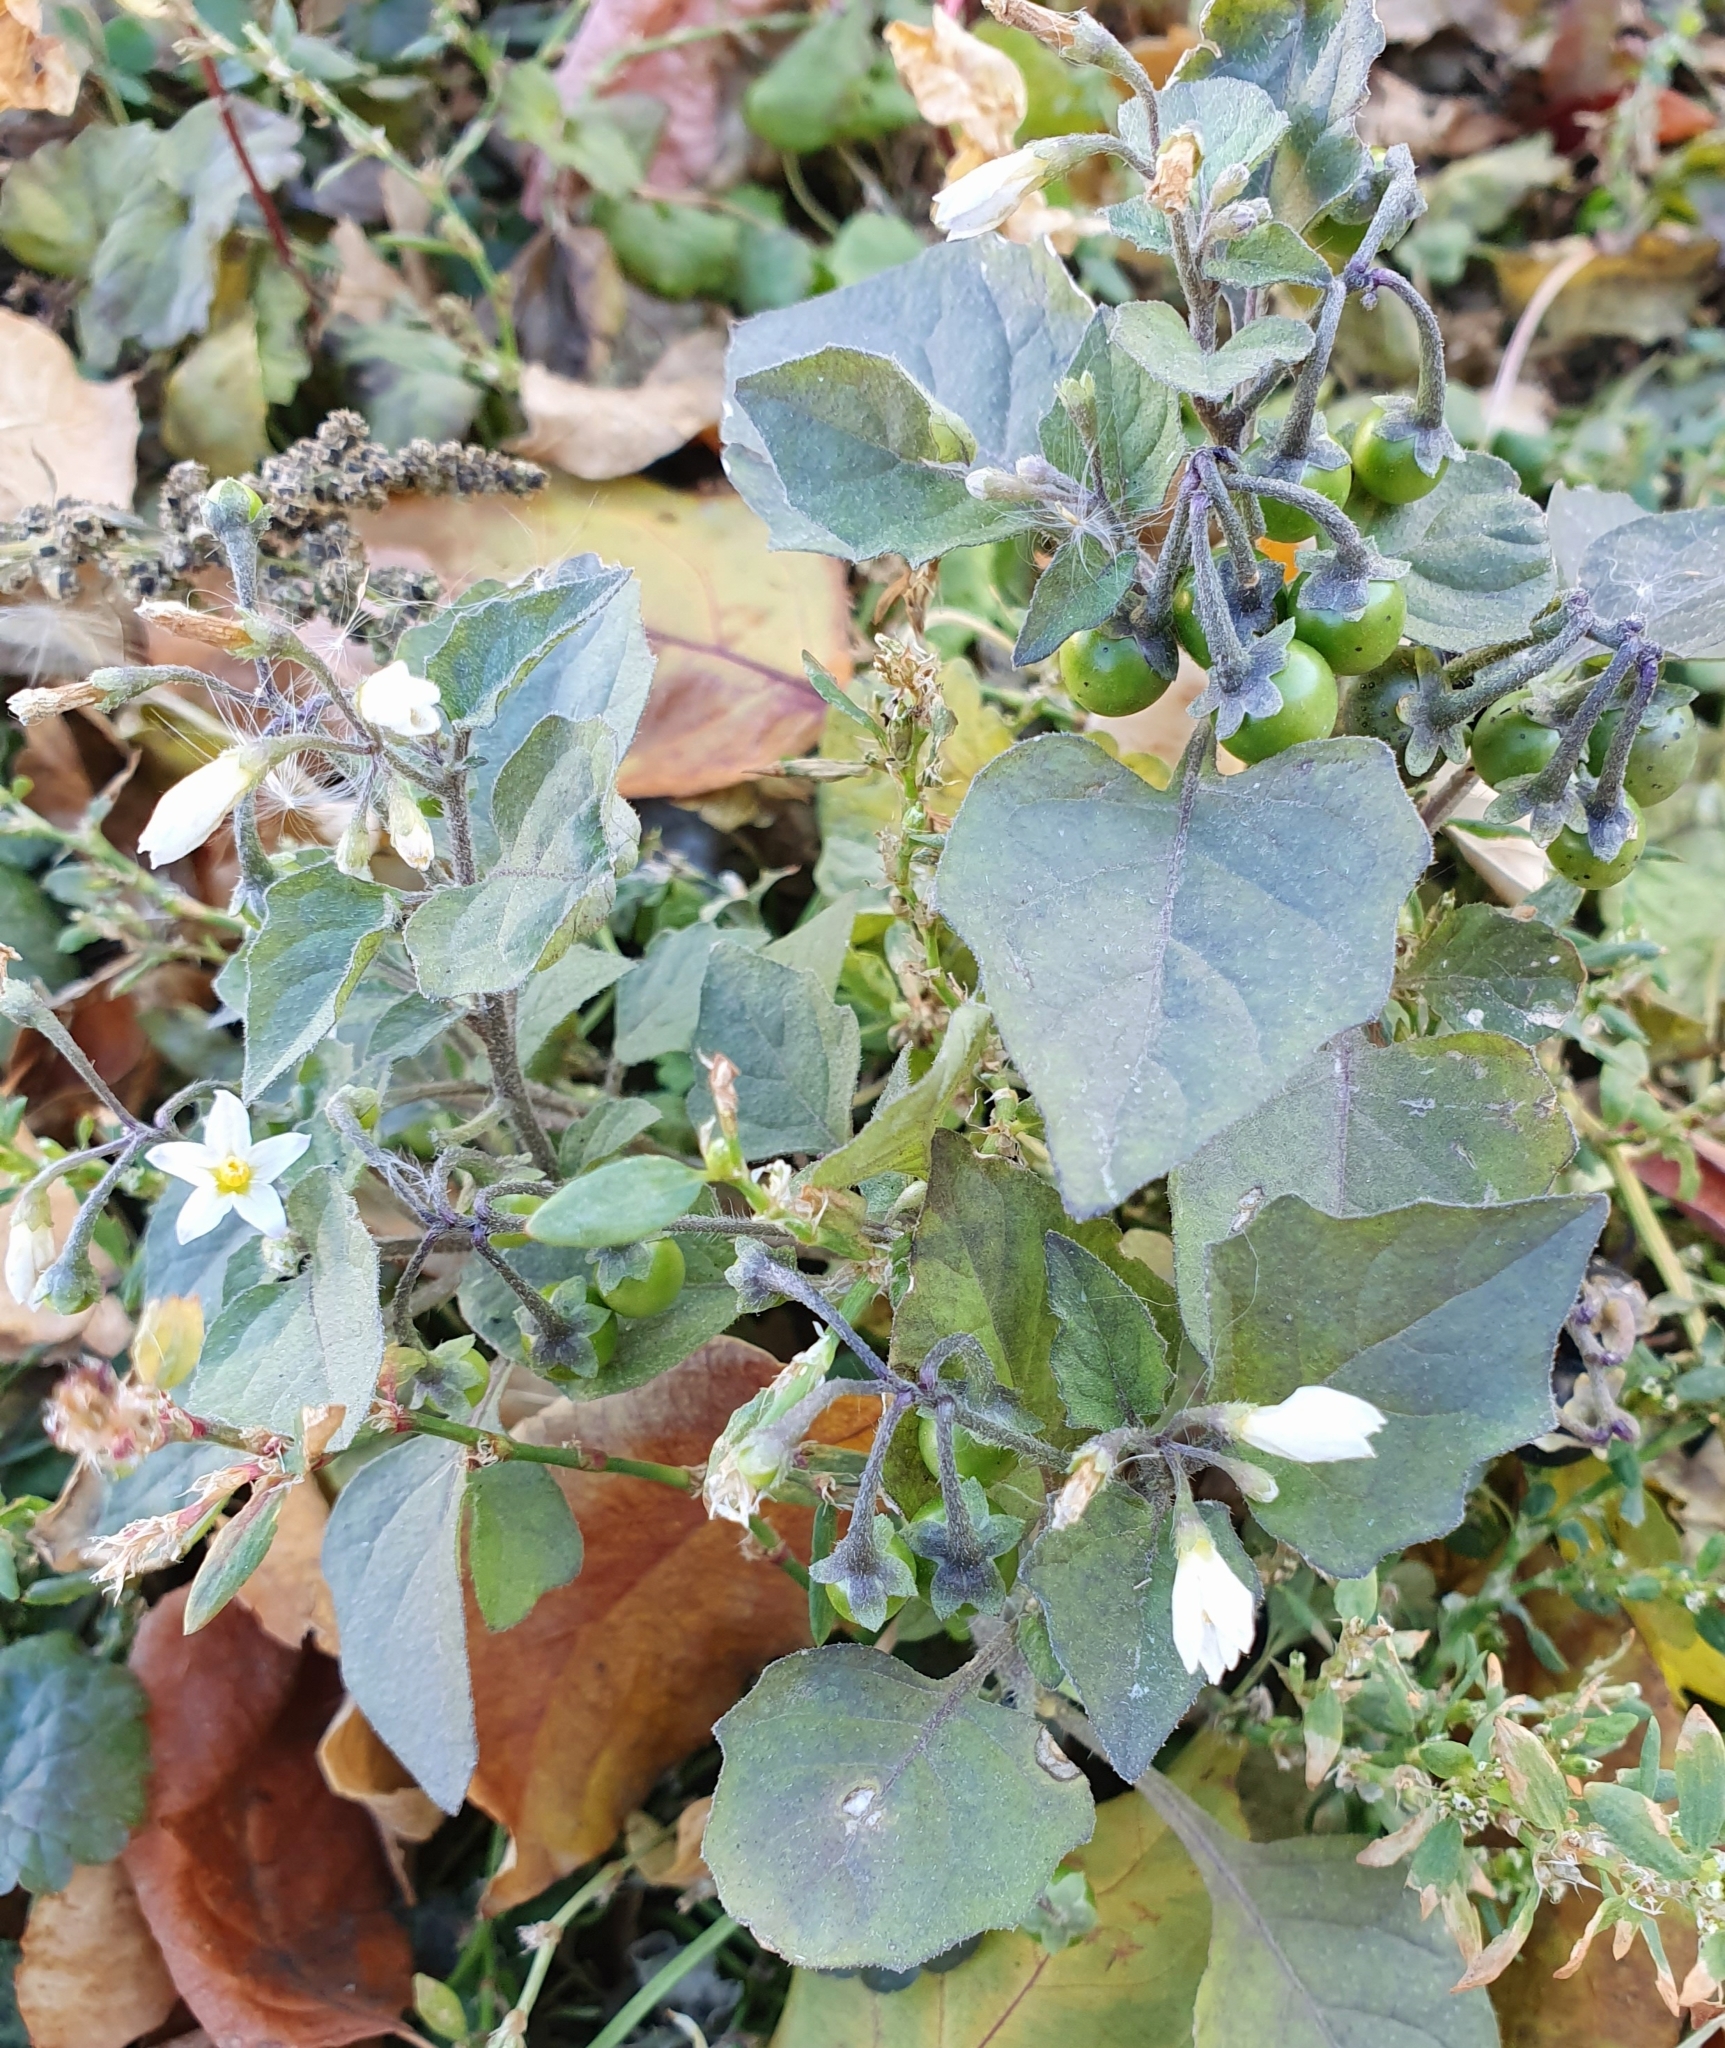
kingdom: Plantae
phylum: Tracheophyta
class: Magnoliopsida
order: Solanales
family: Solanaceae
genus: Solanum
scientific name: Solanum nigrum
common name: Black nightshade
